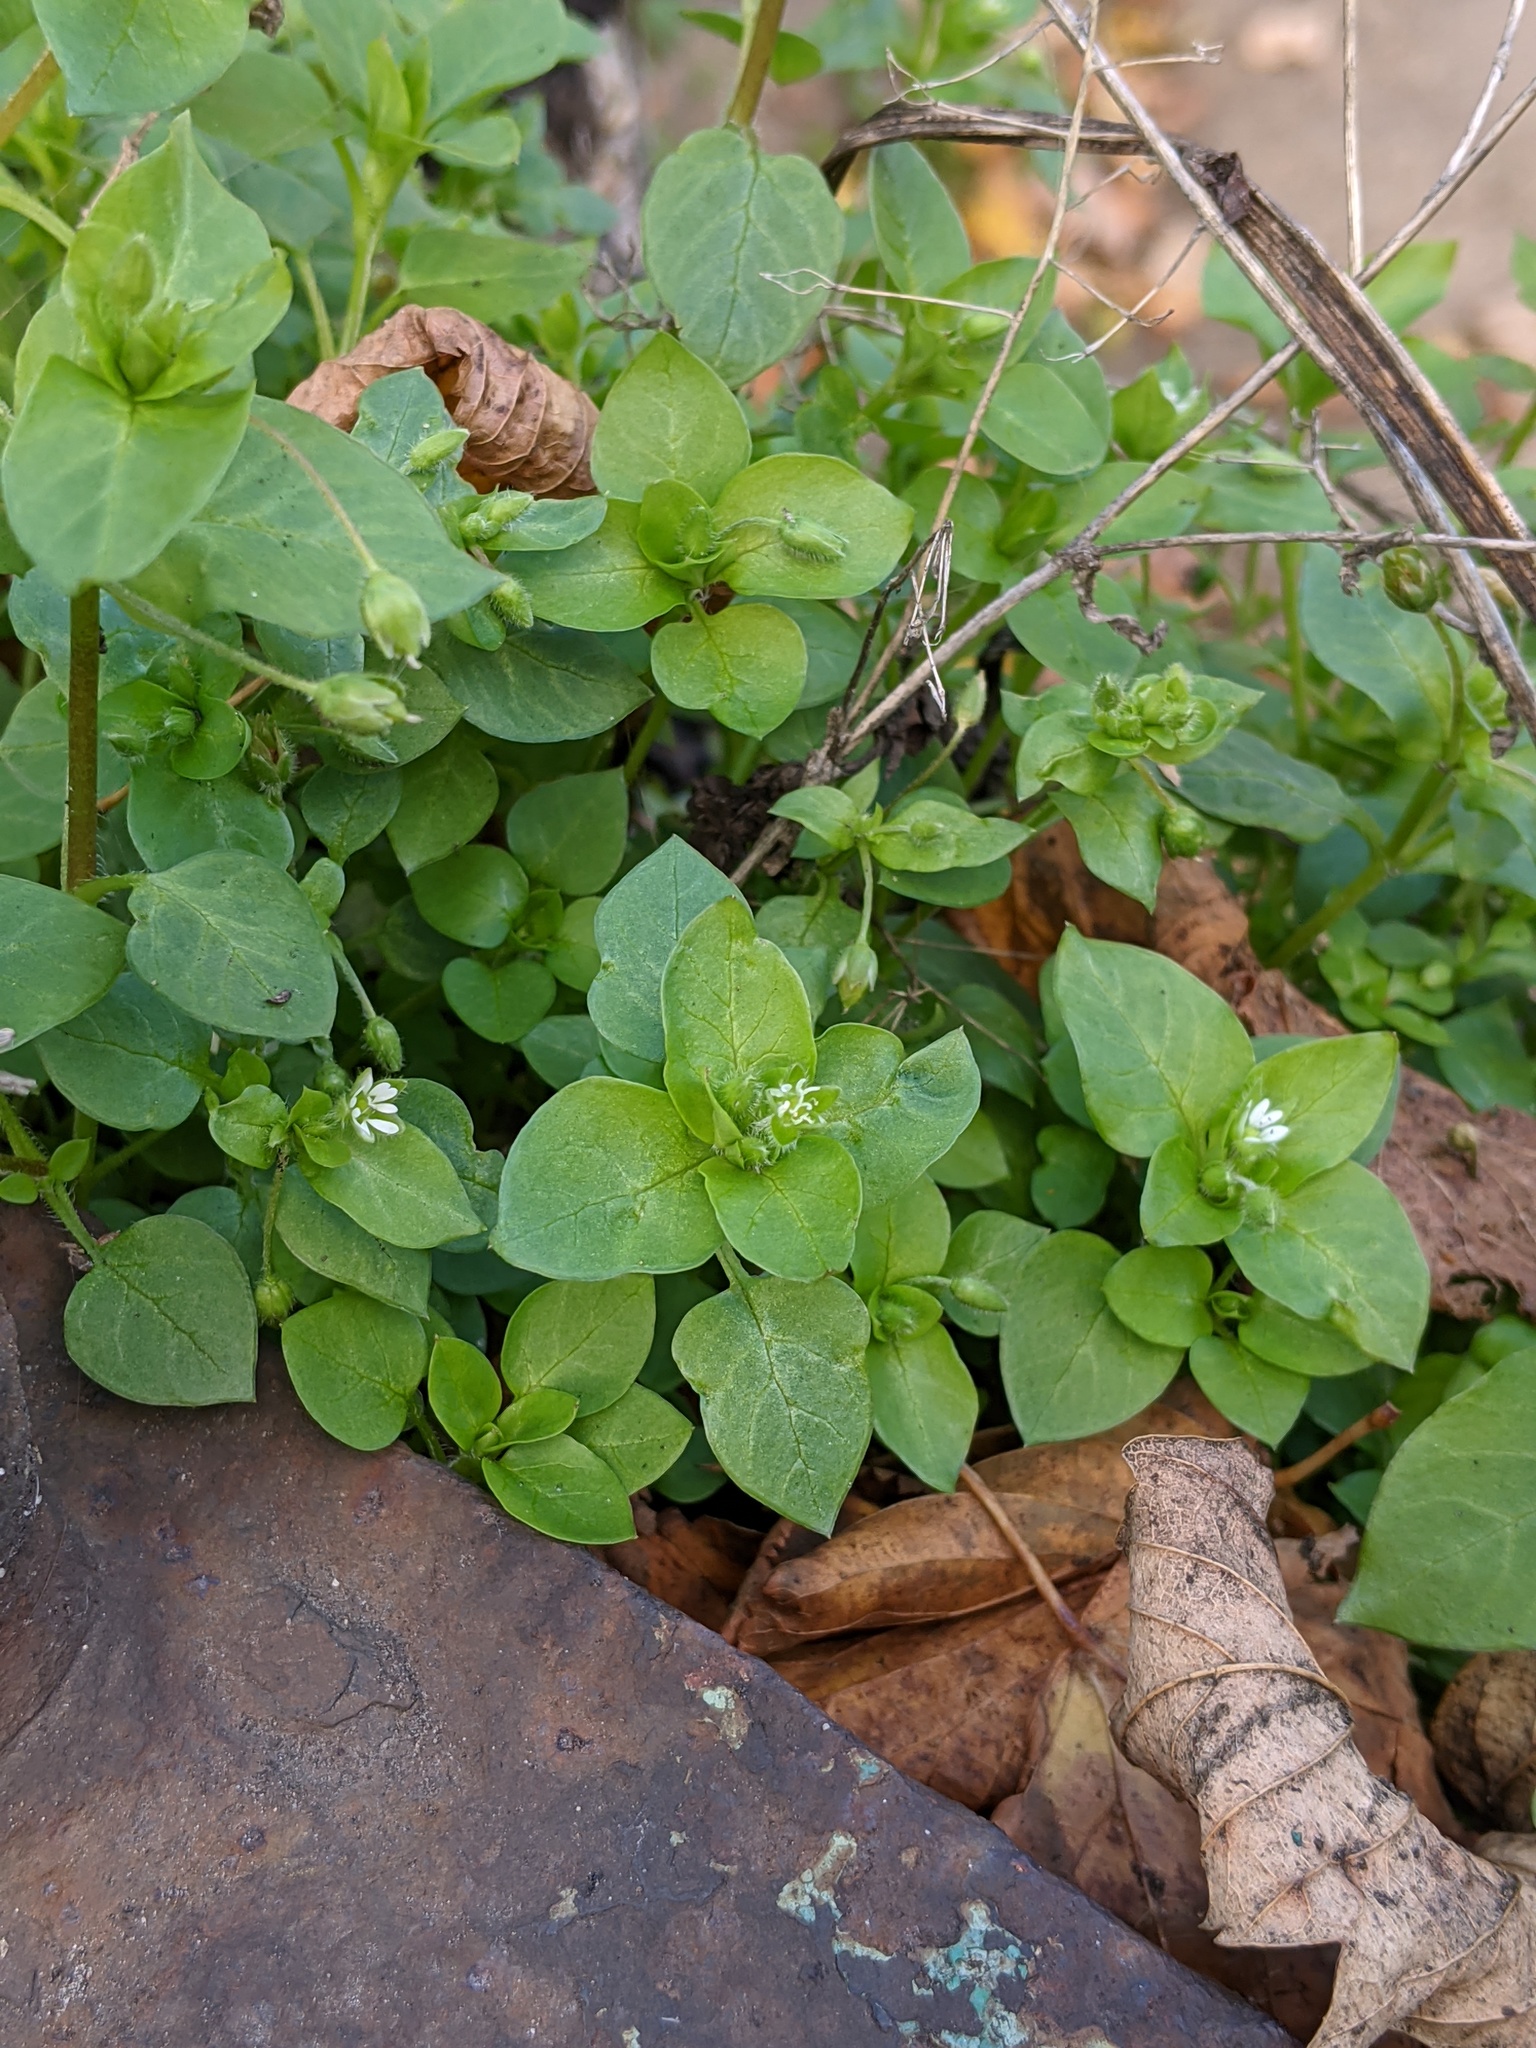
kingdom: Plantae
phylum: Tracheophyta
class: Magnoliopsida
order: Caryophyllales
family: Caryophyllaceae
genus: Stellaria
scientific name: Stellaria media
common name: Common chickweed
